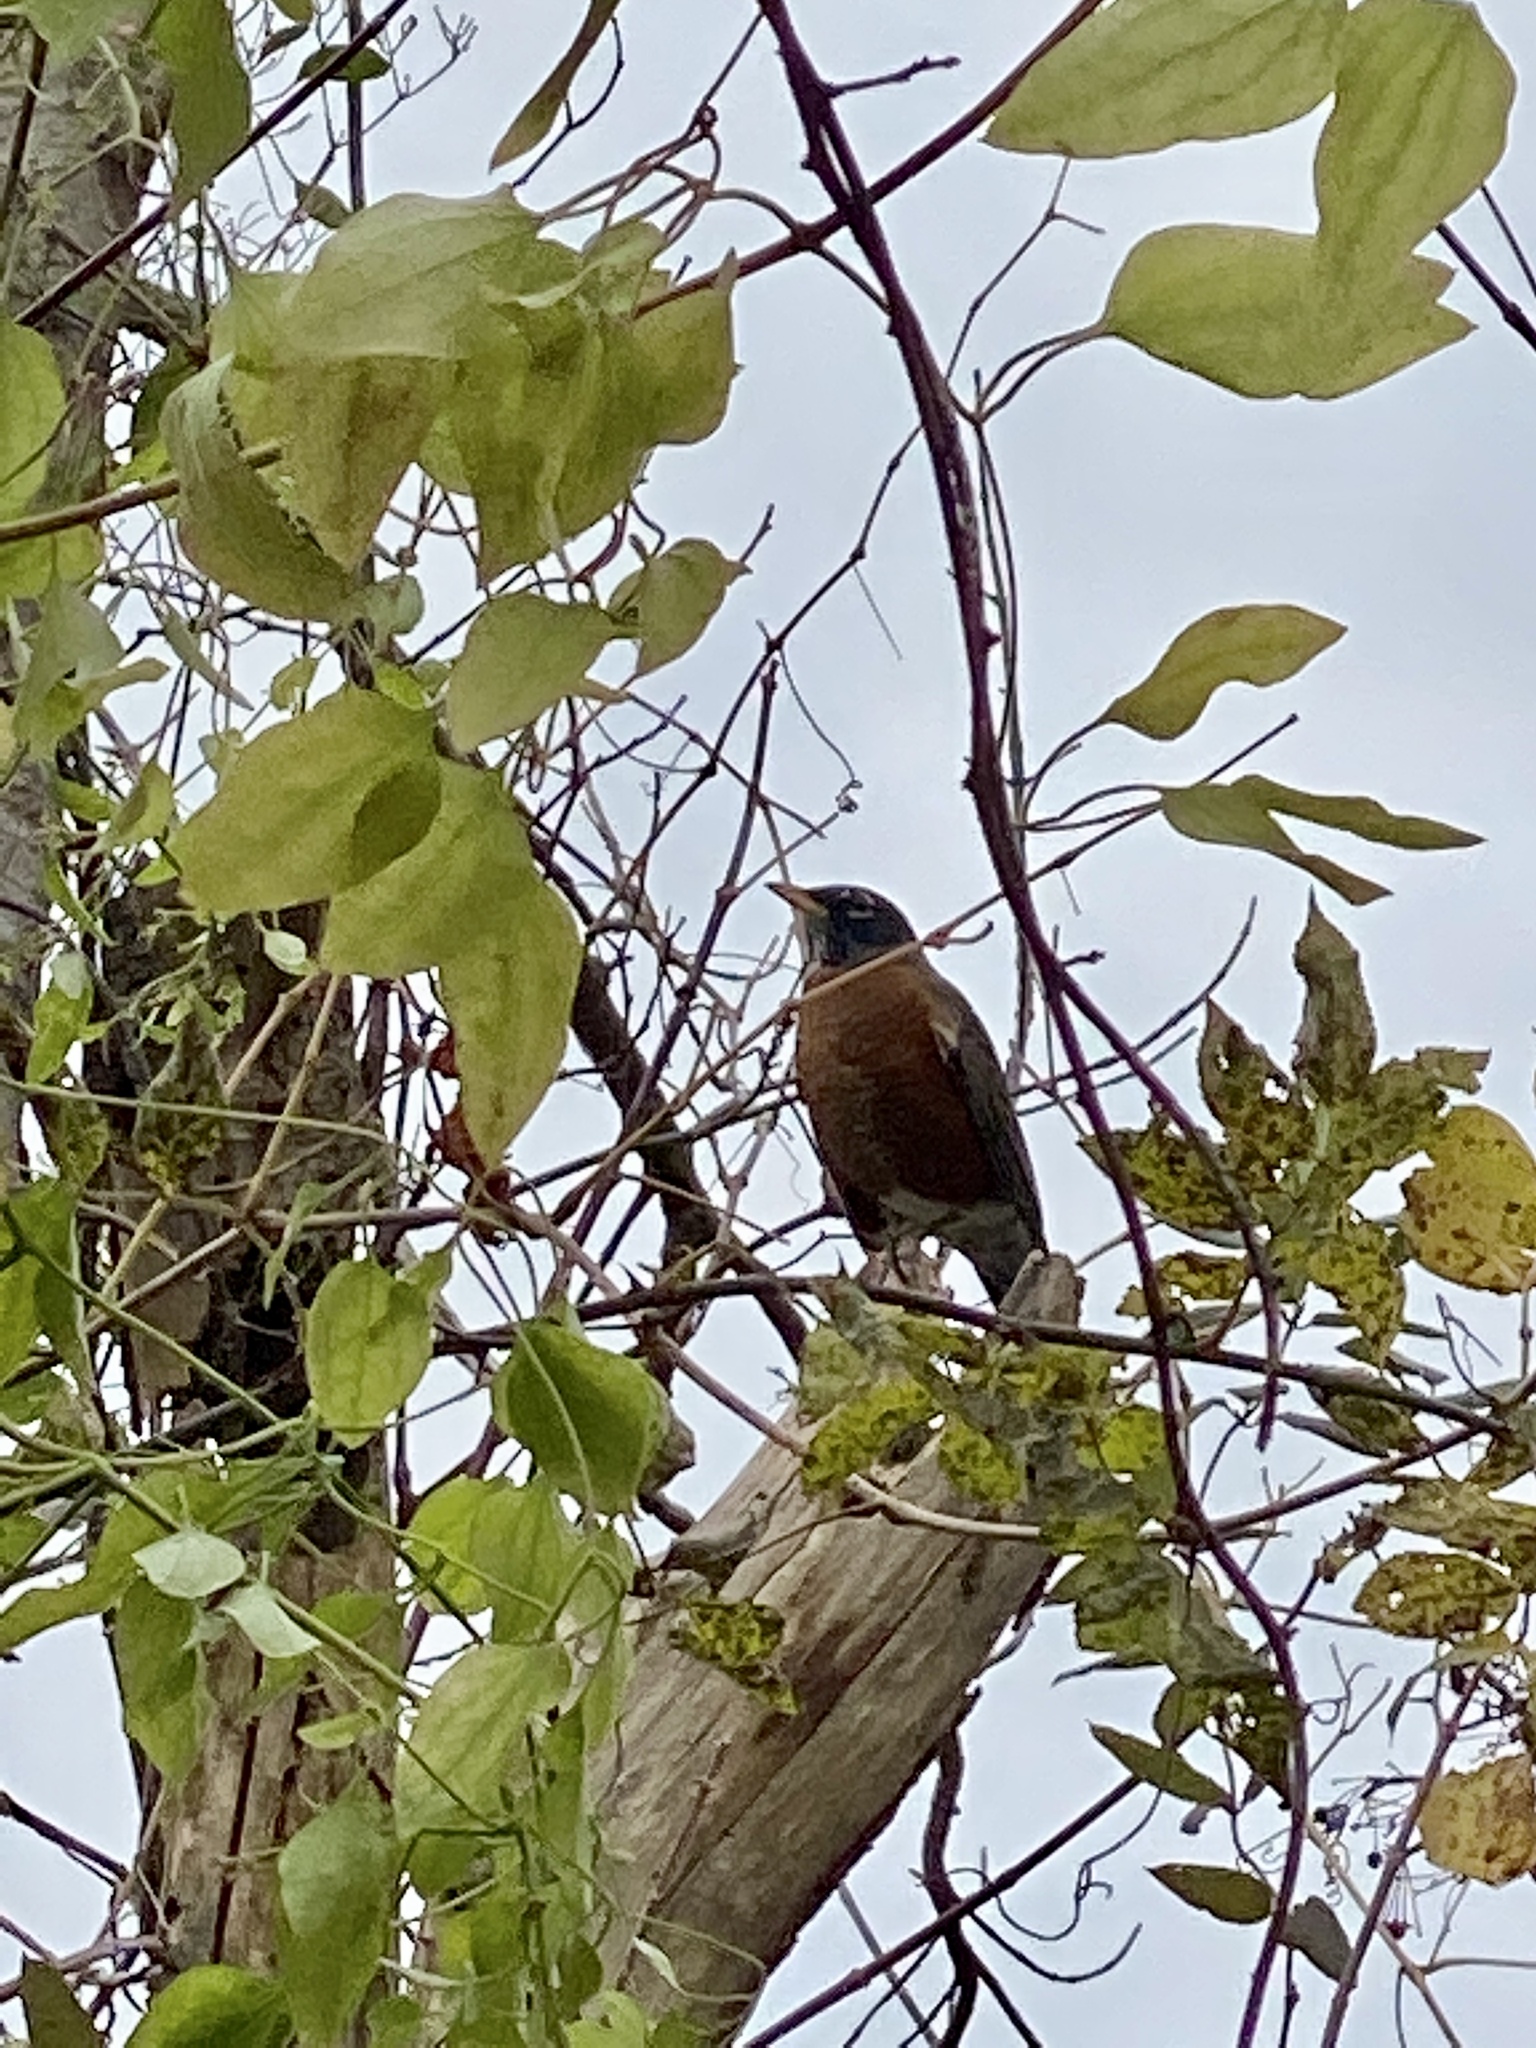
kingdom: Animalia
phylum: Chordata
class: Aves
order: Passeriformes
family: Turdidae
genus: Turdus
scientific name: Turdus migratorius
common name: American robin
